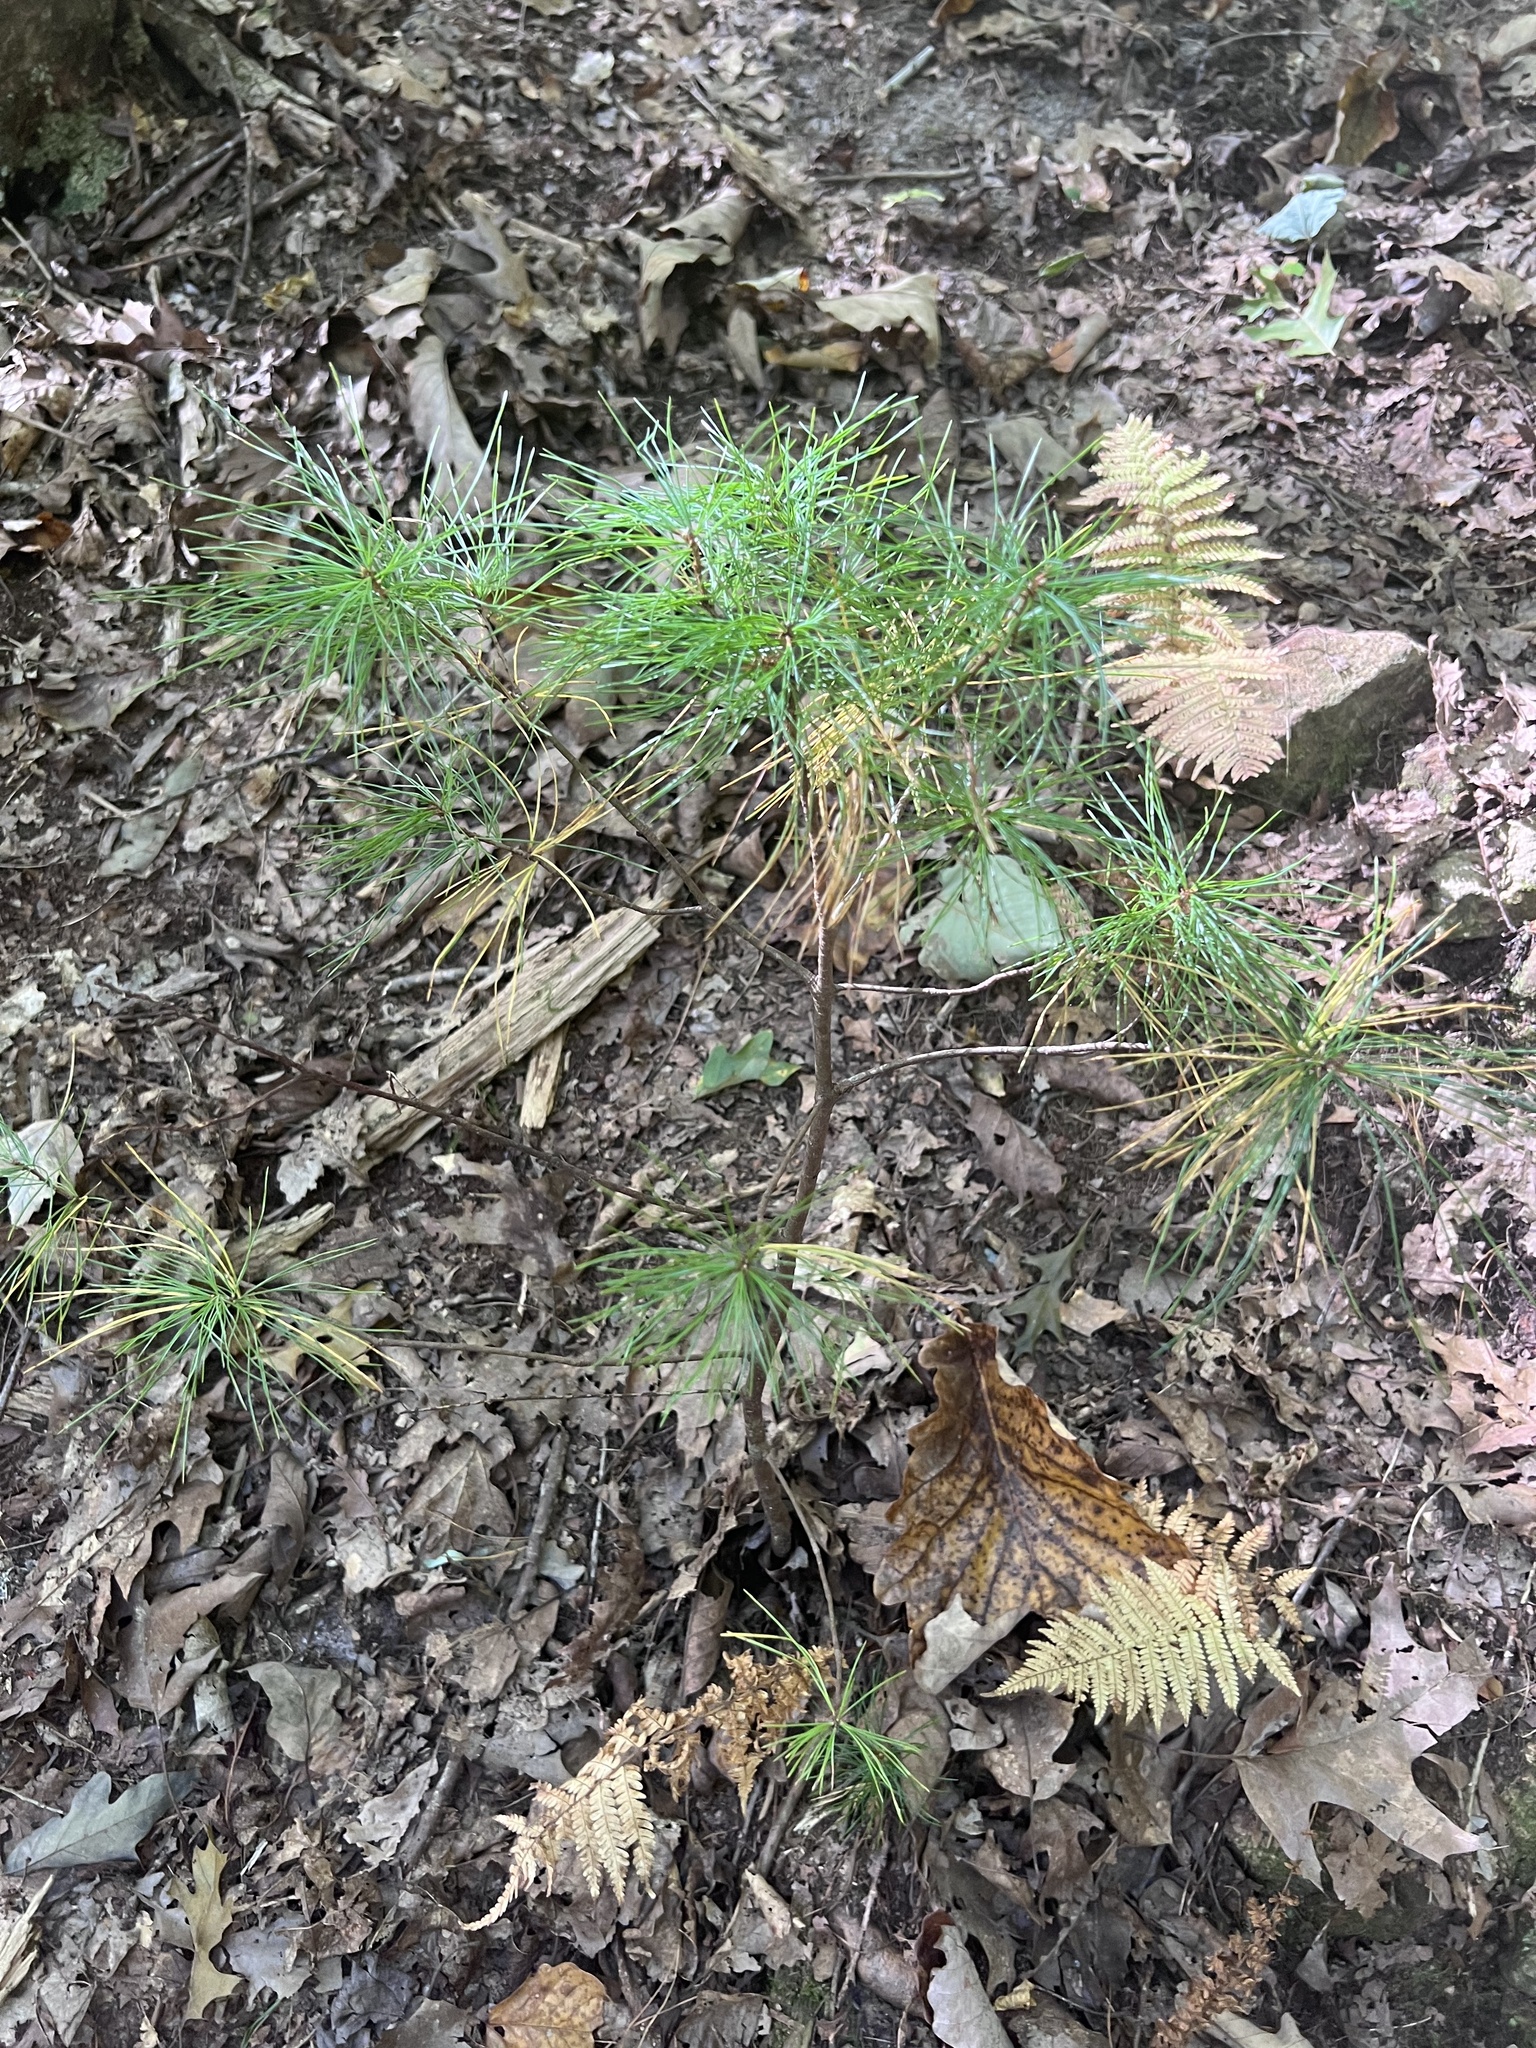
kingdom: Plantae
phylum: Tracheophyta
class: Pinopsida
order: Pinales
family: Pinaceae
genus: Pinus
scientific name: Pinus strobus
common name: Weymouth pine
